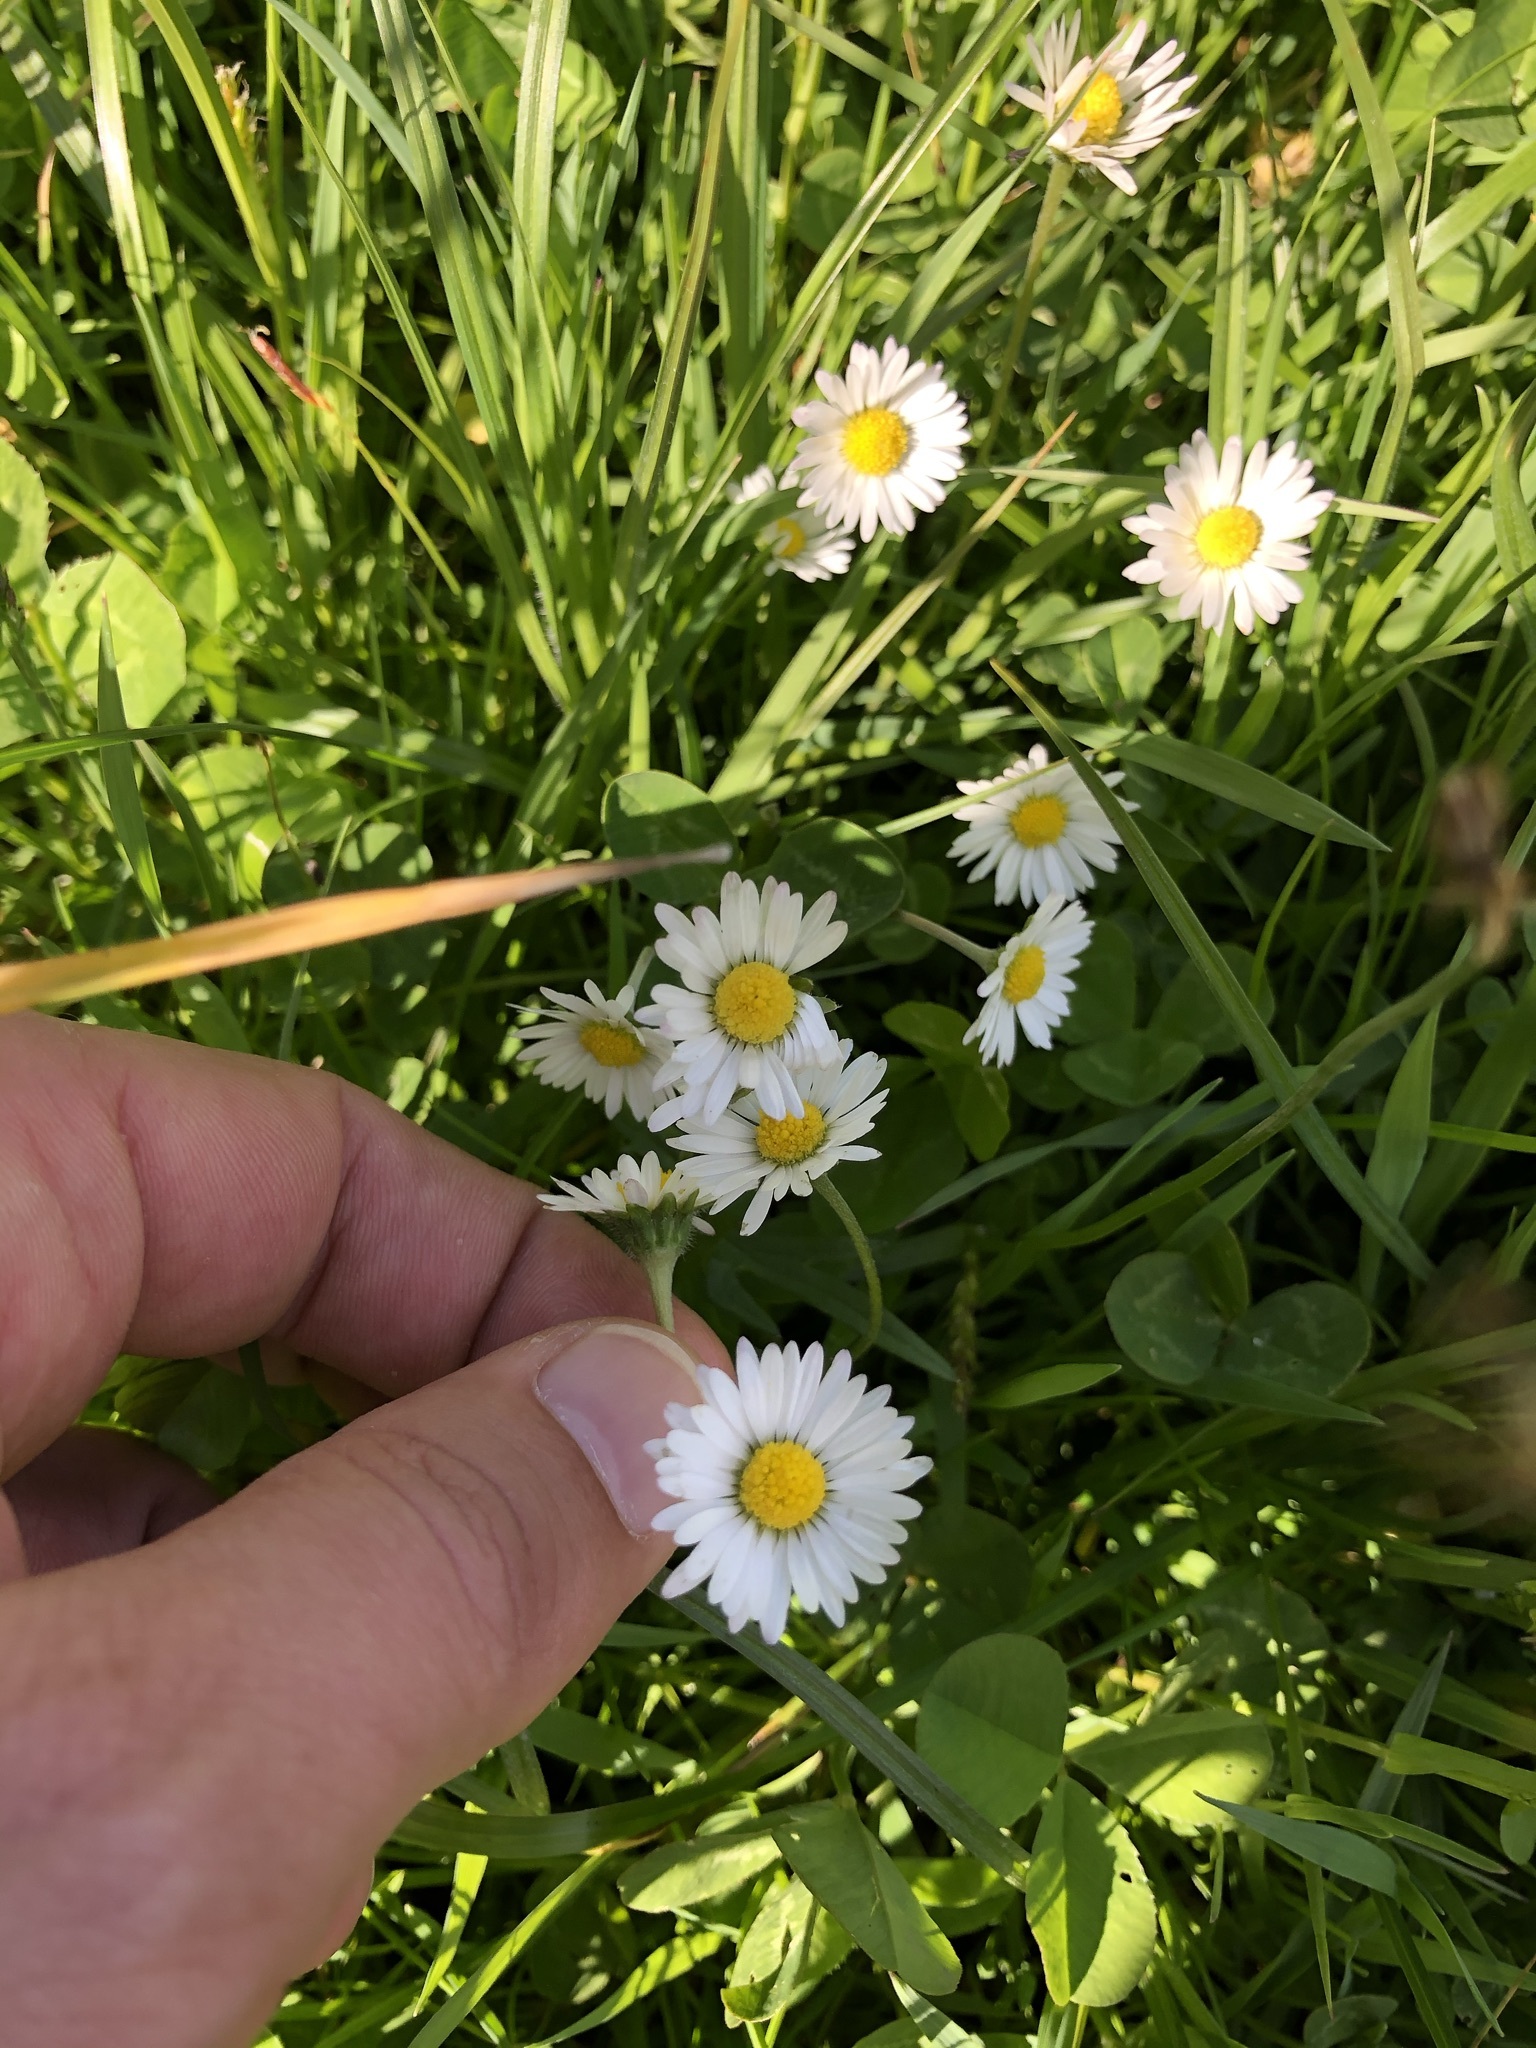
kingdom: Plantae
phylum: Tracheophyta
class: Magnoliopsida
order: Asterales
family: Asteraceae
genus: Bellis
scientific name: Bellis perennis
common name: Lawndaisy
